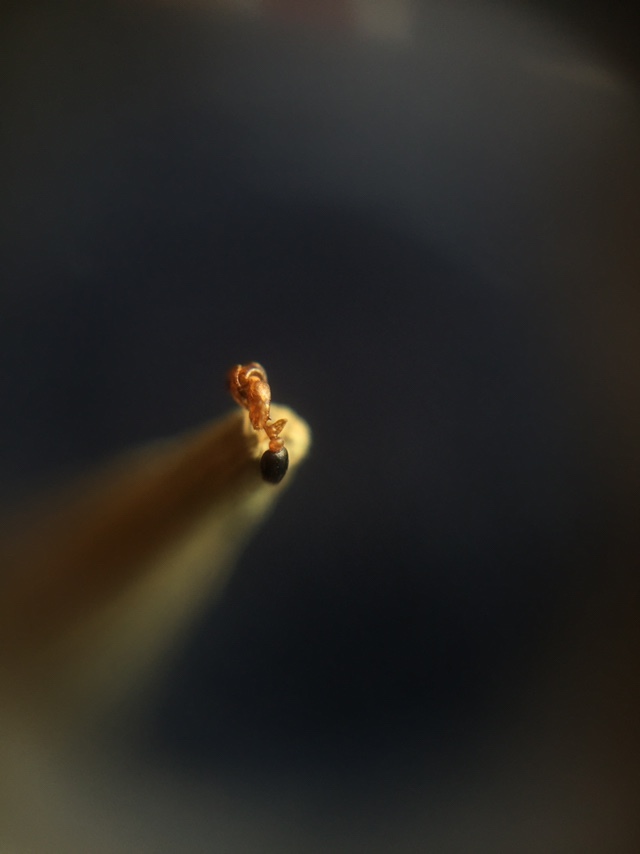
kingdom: Animalia
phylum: Arthropoda
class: Insecta
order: Hymenoptera
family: Formicidae
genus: Cardiocondyla
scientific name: Cardiocondyla minutior
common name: Ant
